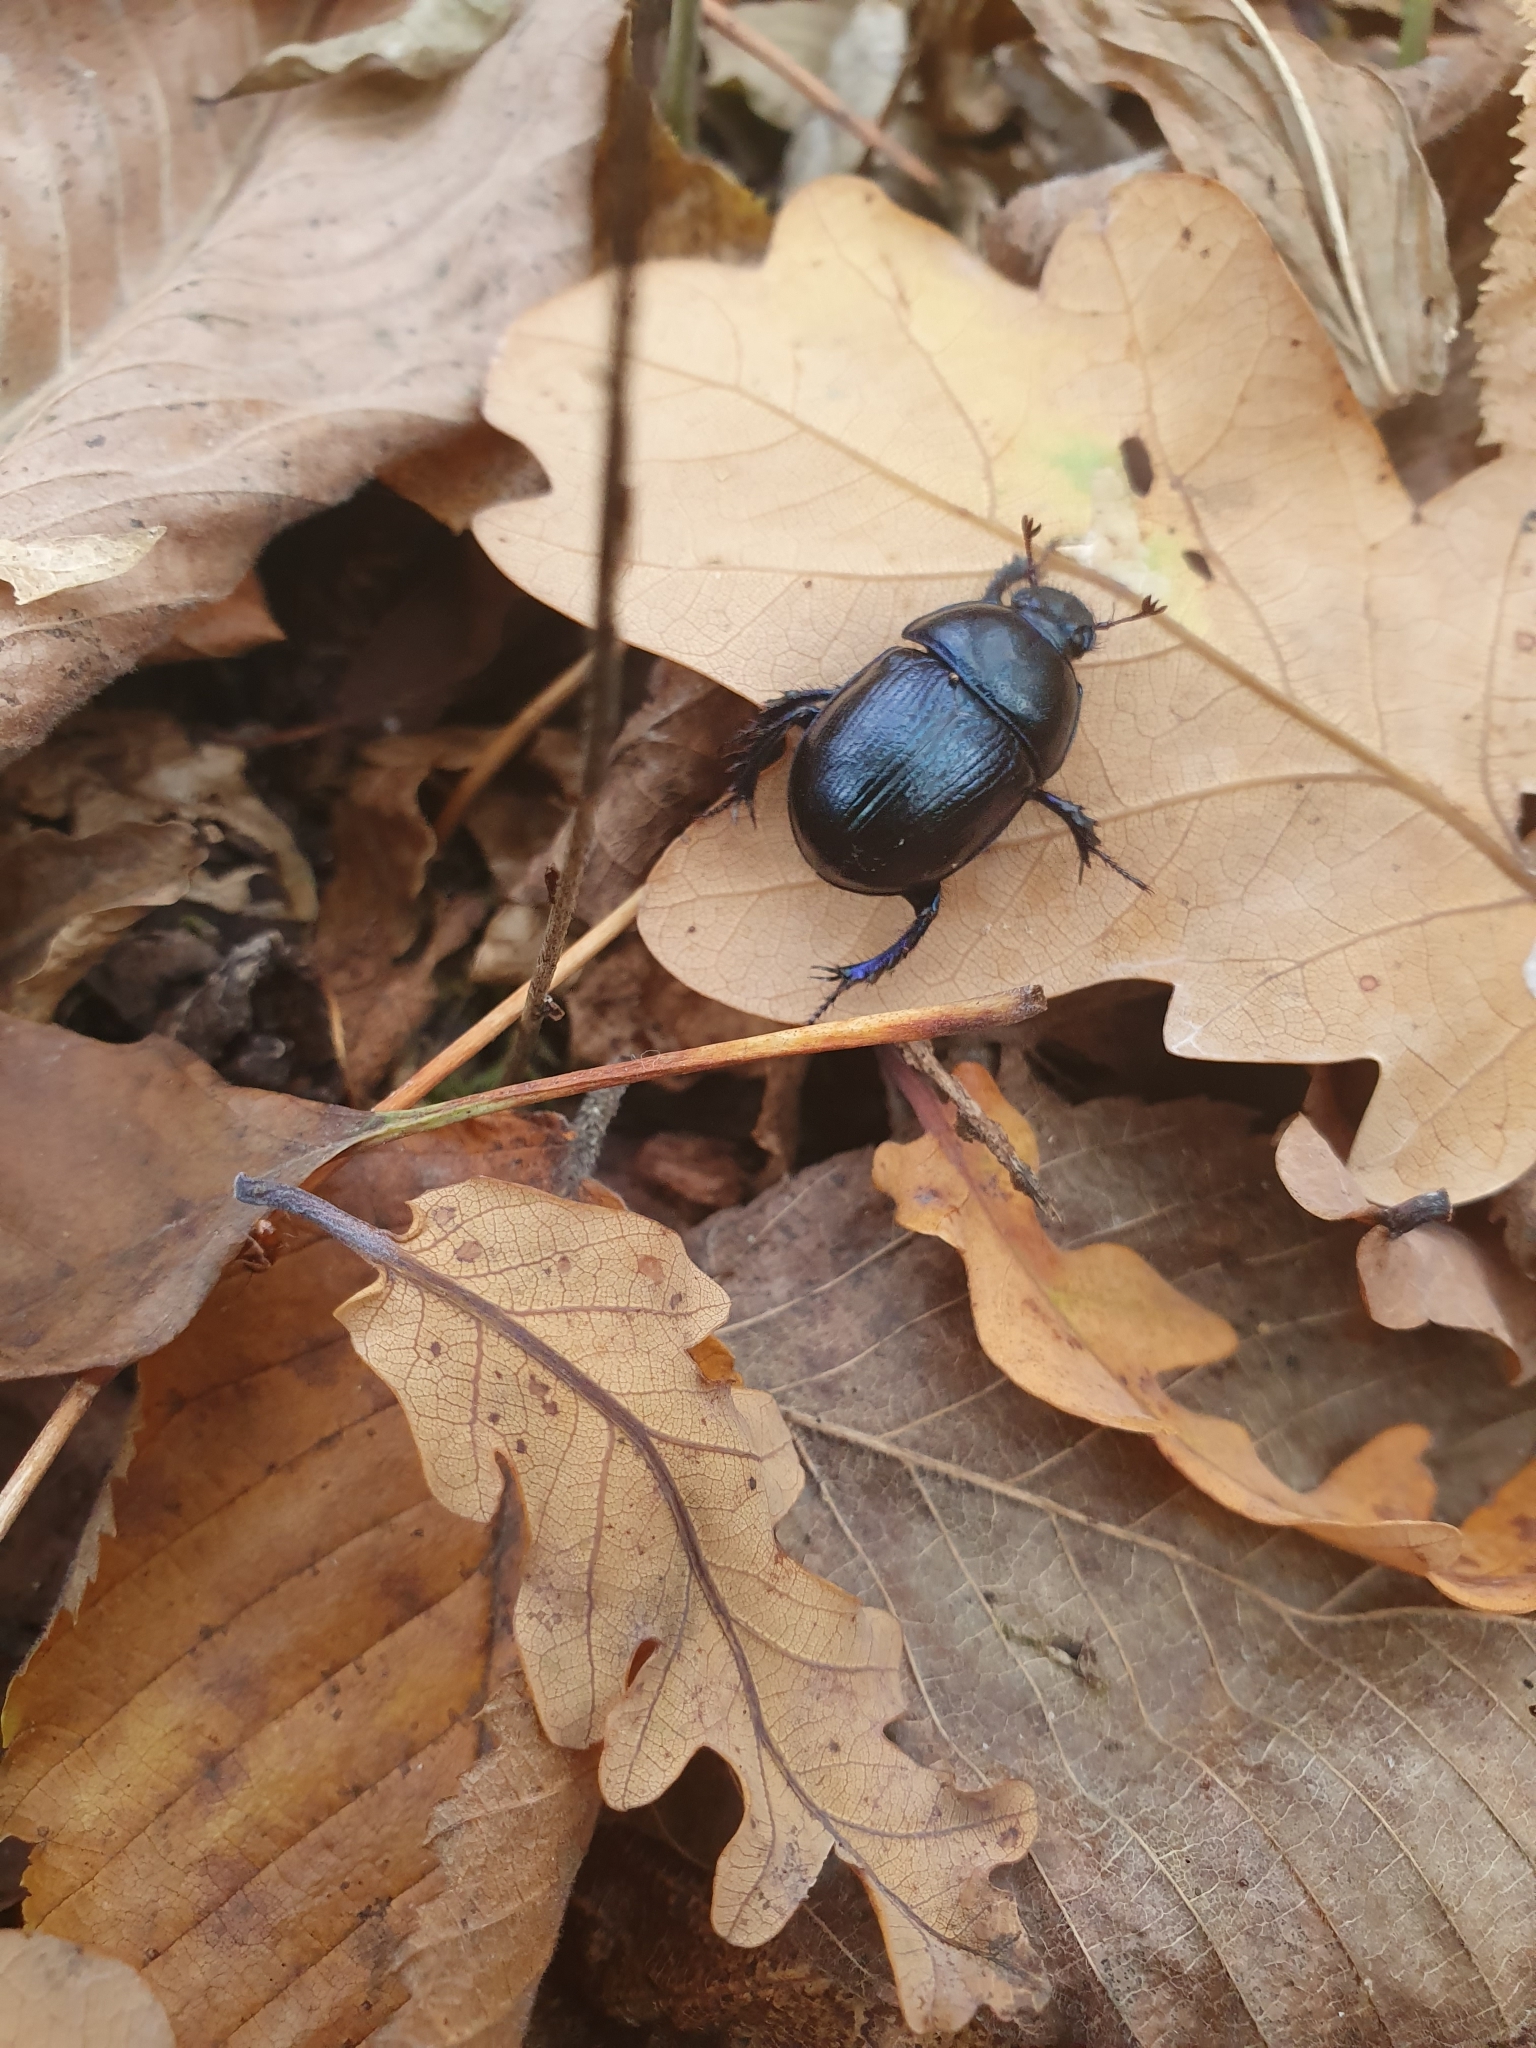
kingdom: Animalia
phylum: Arthropoda
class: Insecta
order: Coleoptera
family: Geotrupidae
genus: Anoplotrupes
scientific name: Anoplotrupes stercorosus
